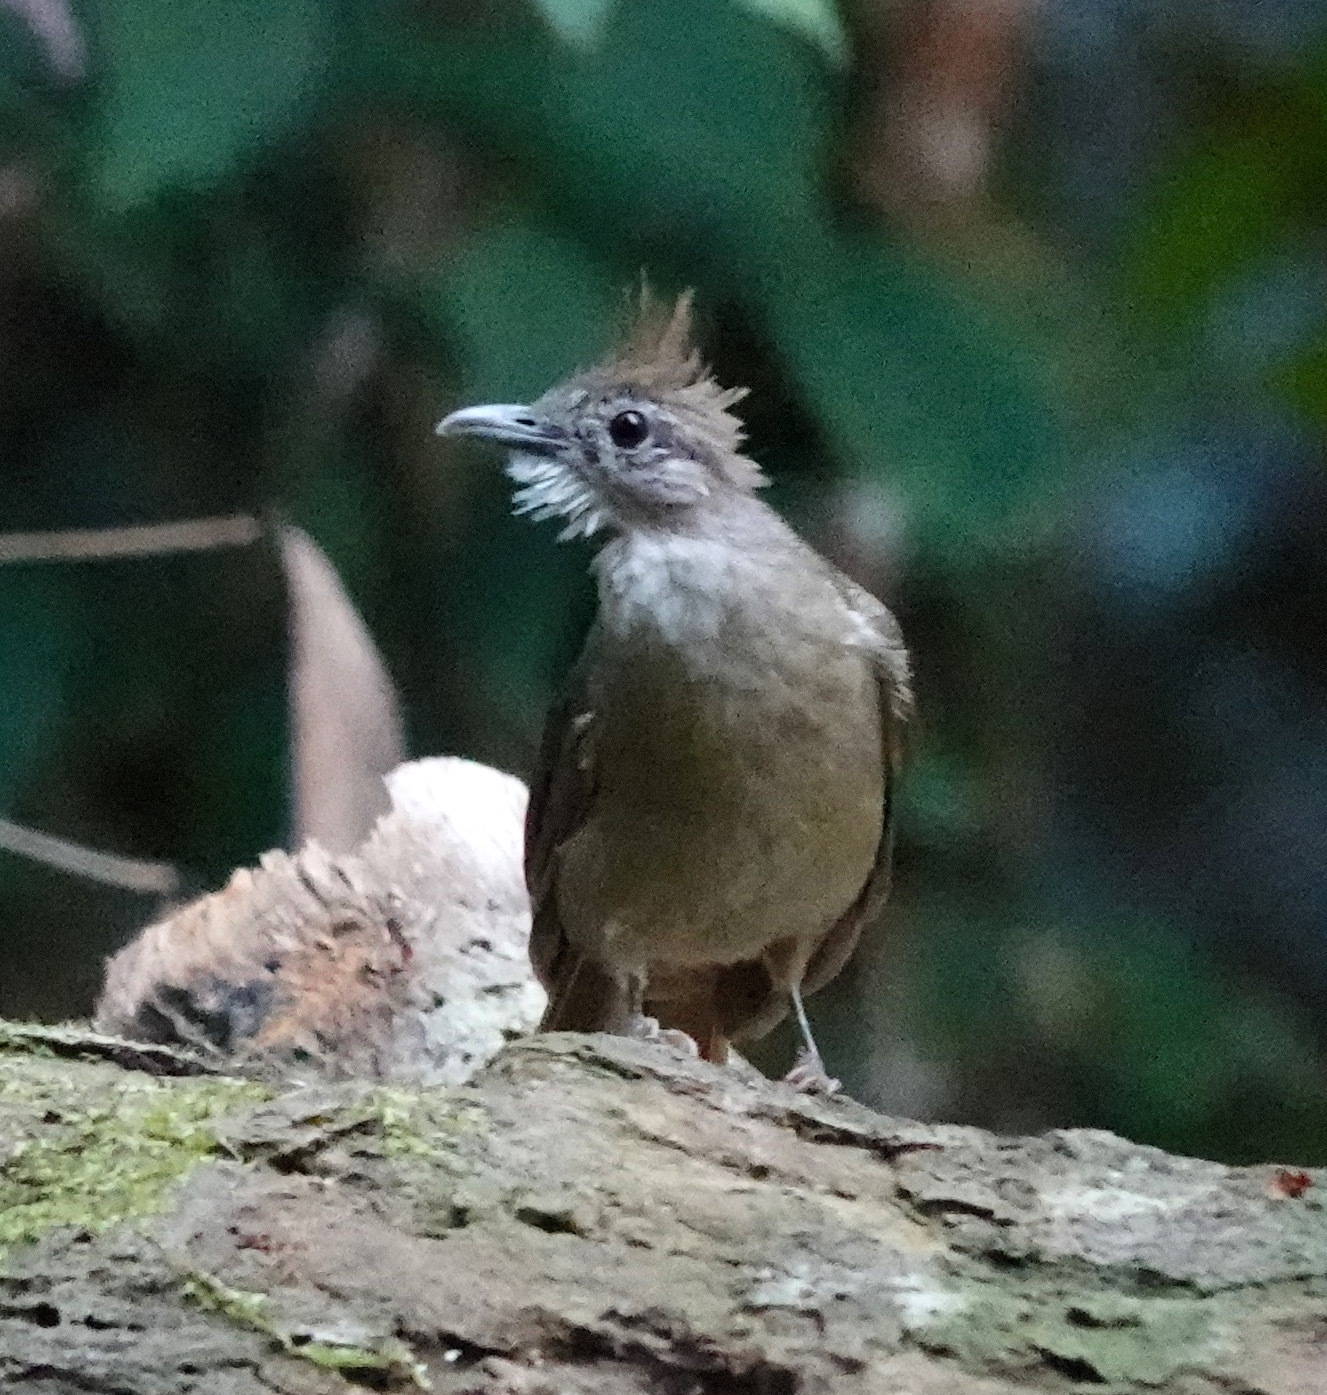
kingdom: Animalia
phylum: Chordata
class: Aves
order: Passeriformes
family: Pycnonotidae
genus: Alophoixus
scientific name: Alophoixus ochraceus
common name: Ochraceous bulbul
